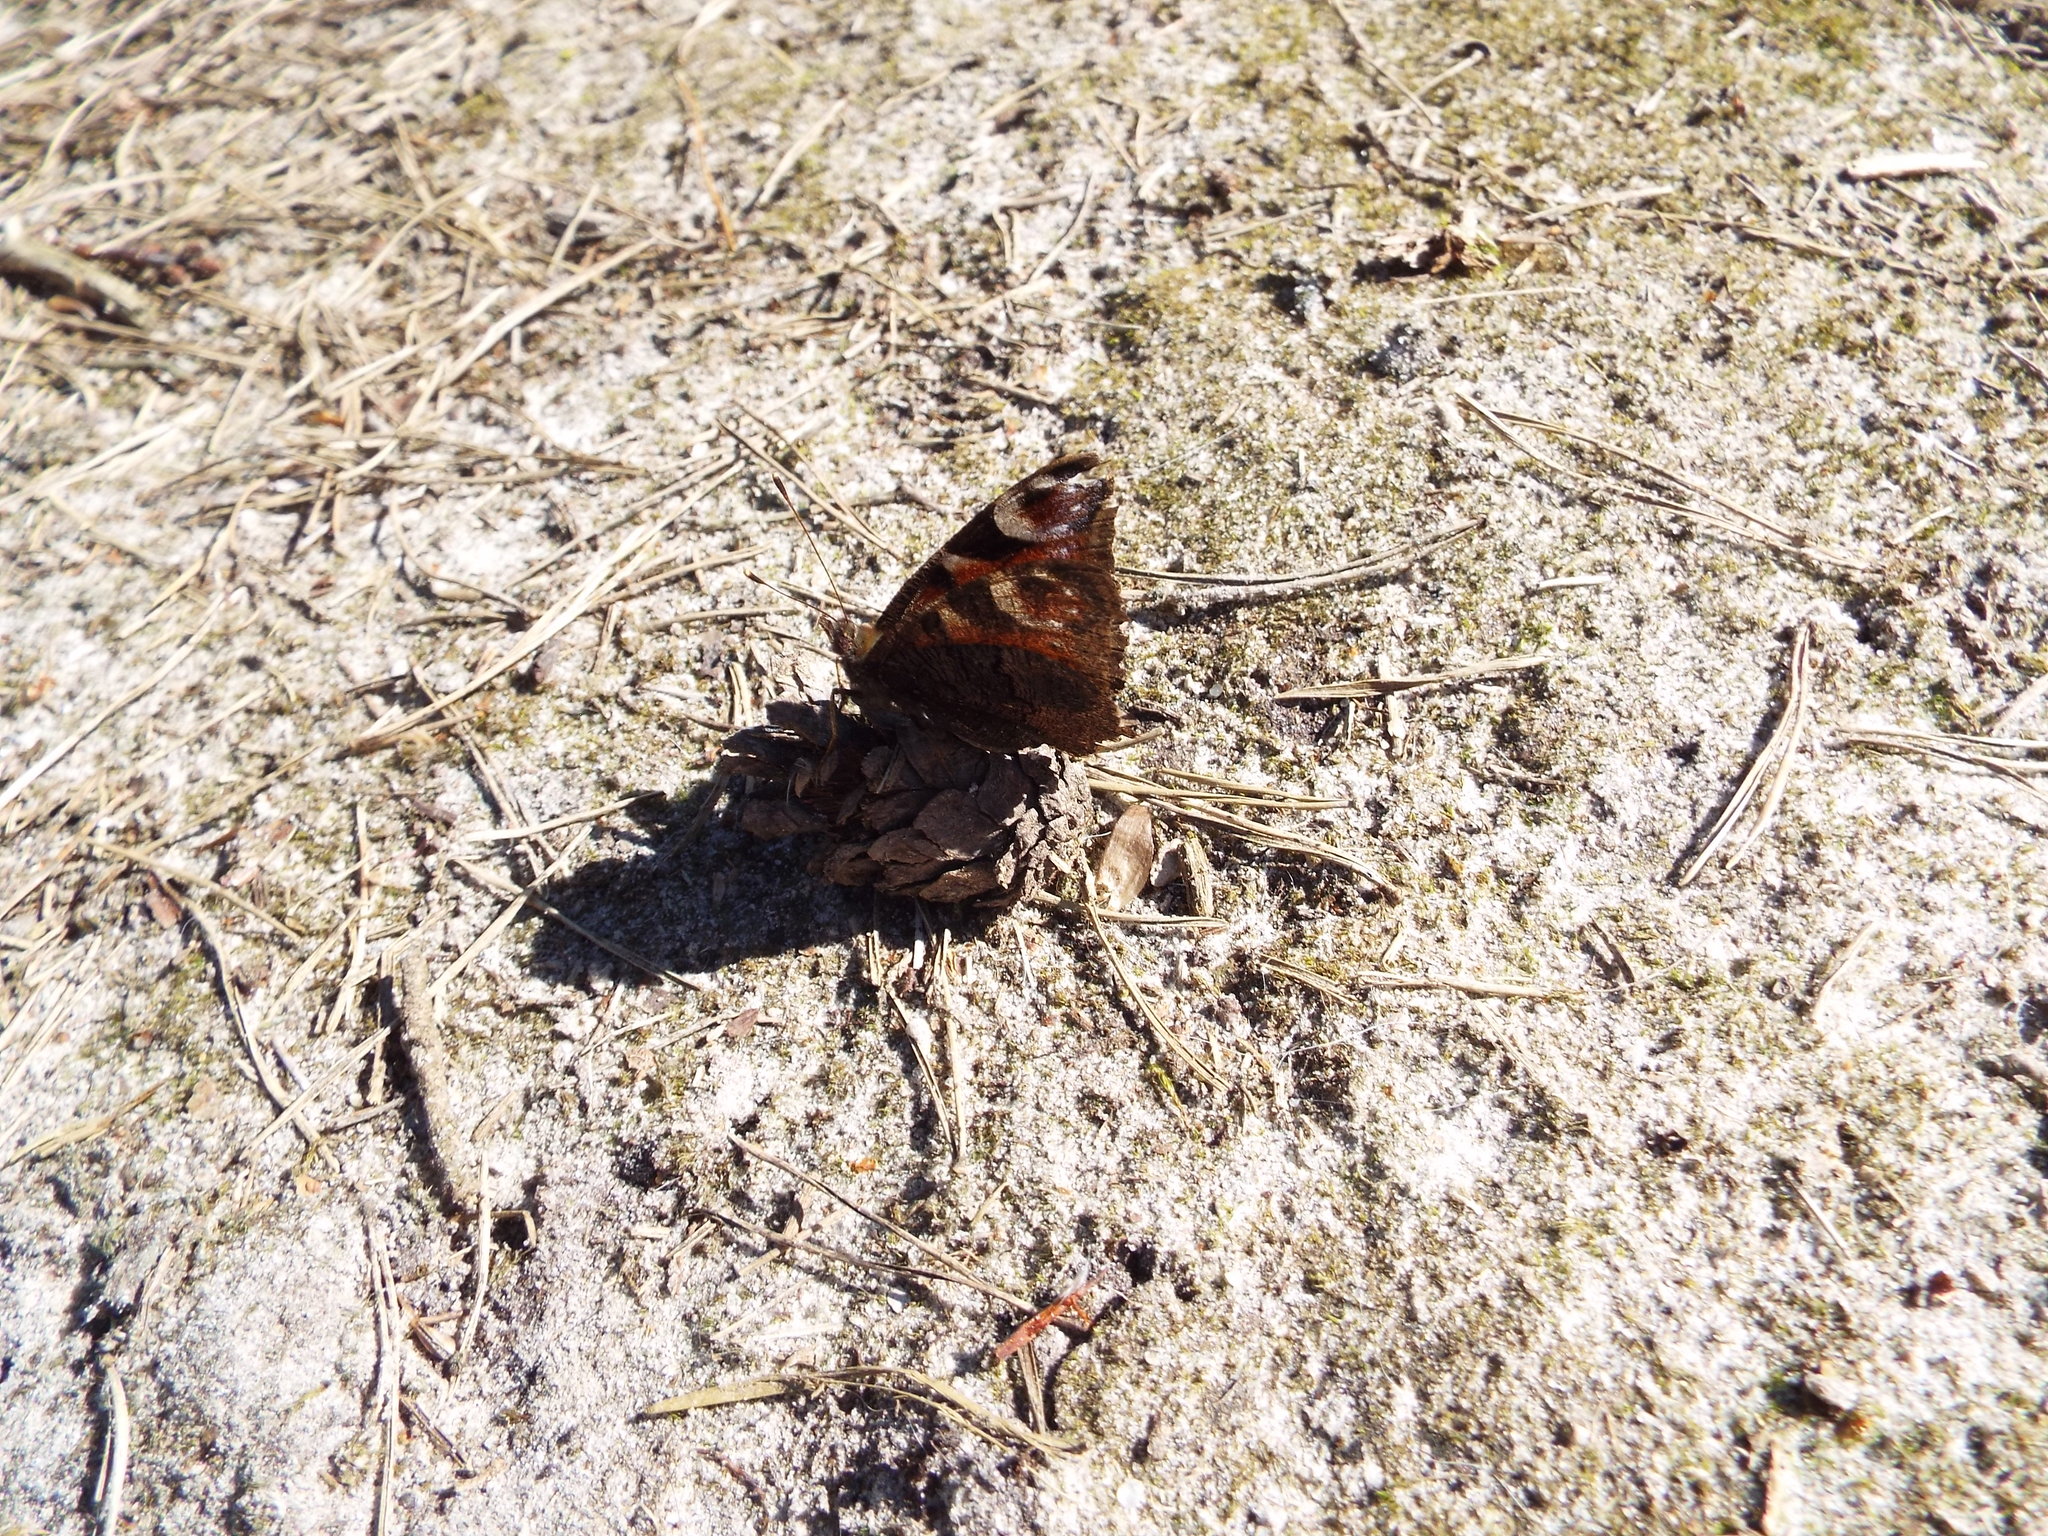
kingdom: Animalia
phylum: Arthropoda
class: Insecta
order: Lepidoptera
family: Nymphalidae
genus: Aglais
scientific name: Aglais io
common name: Peacock
